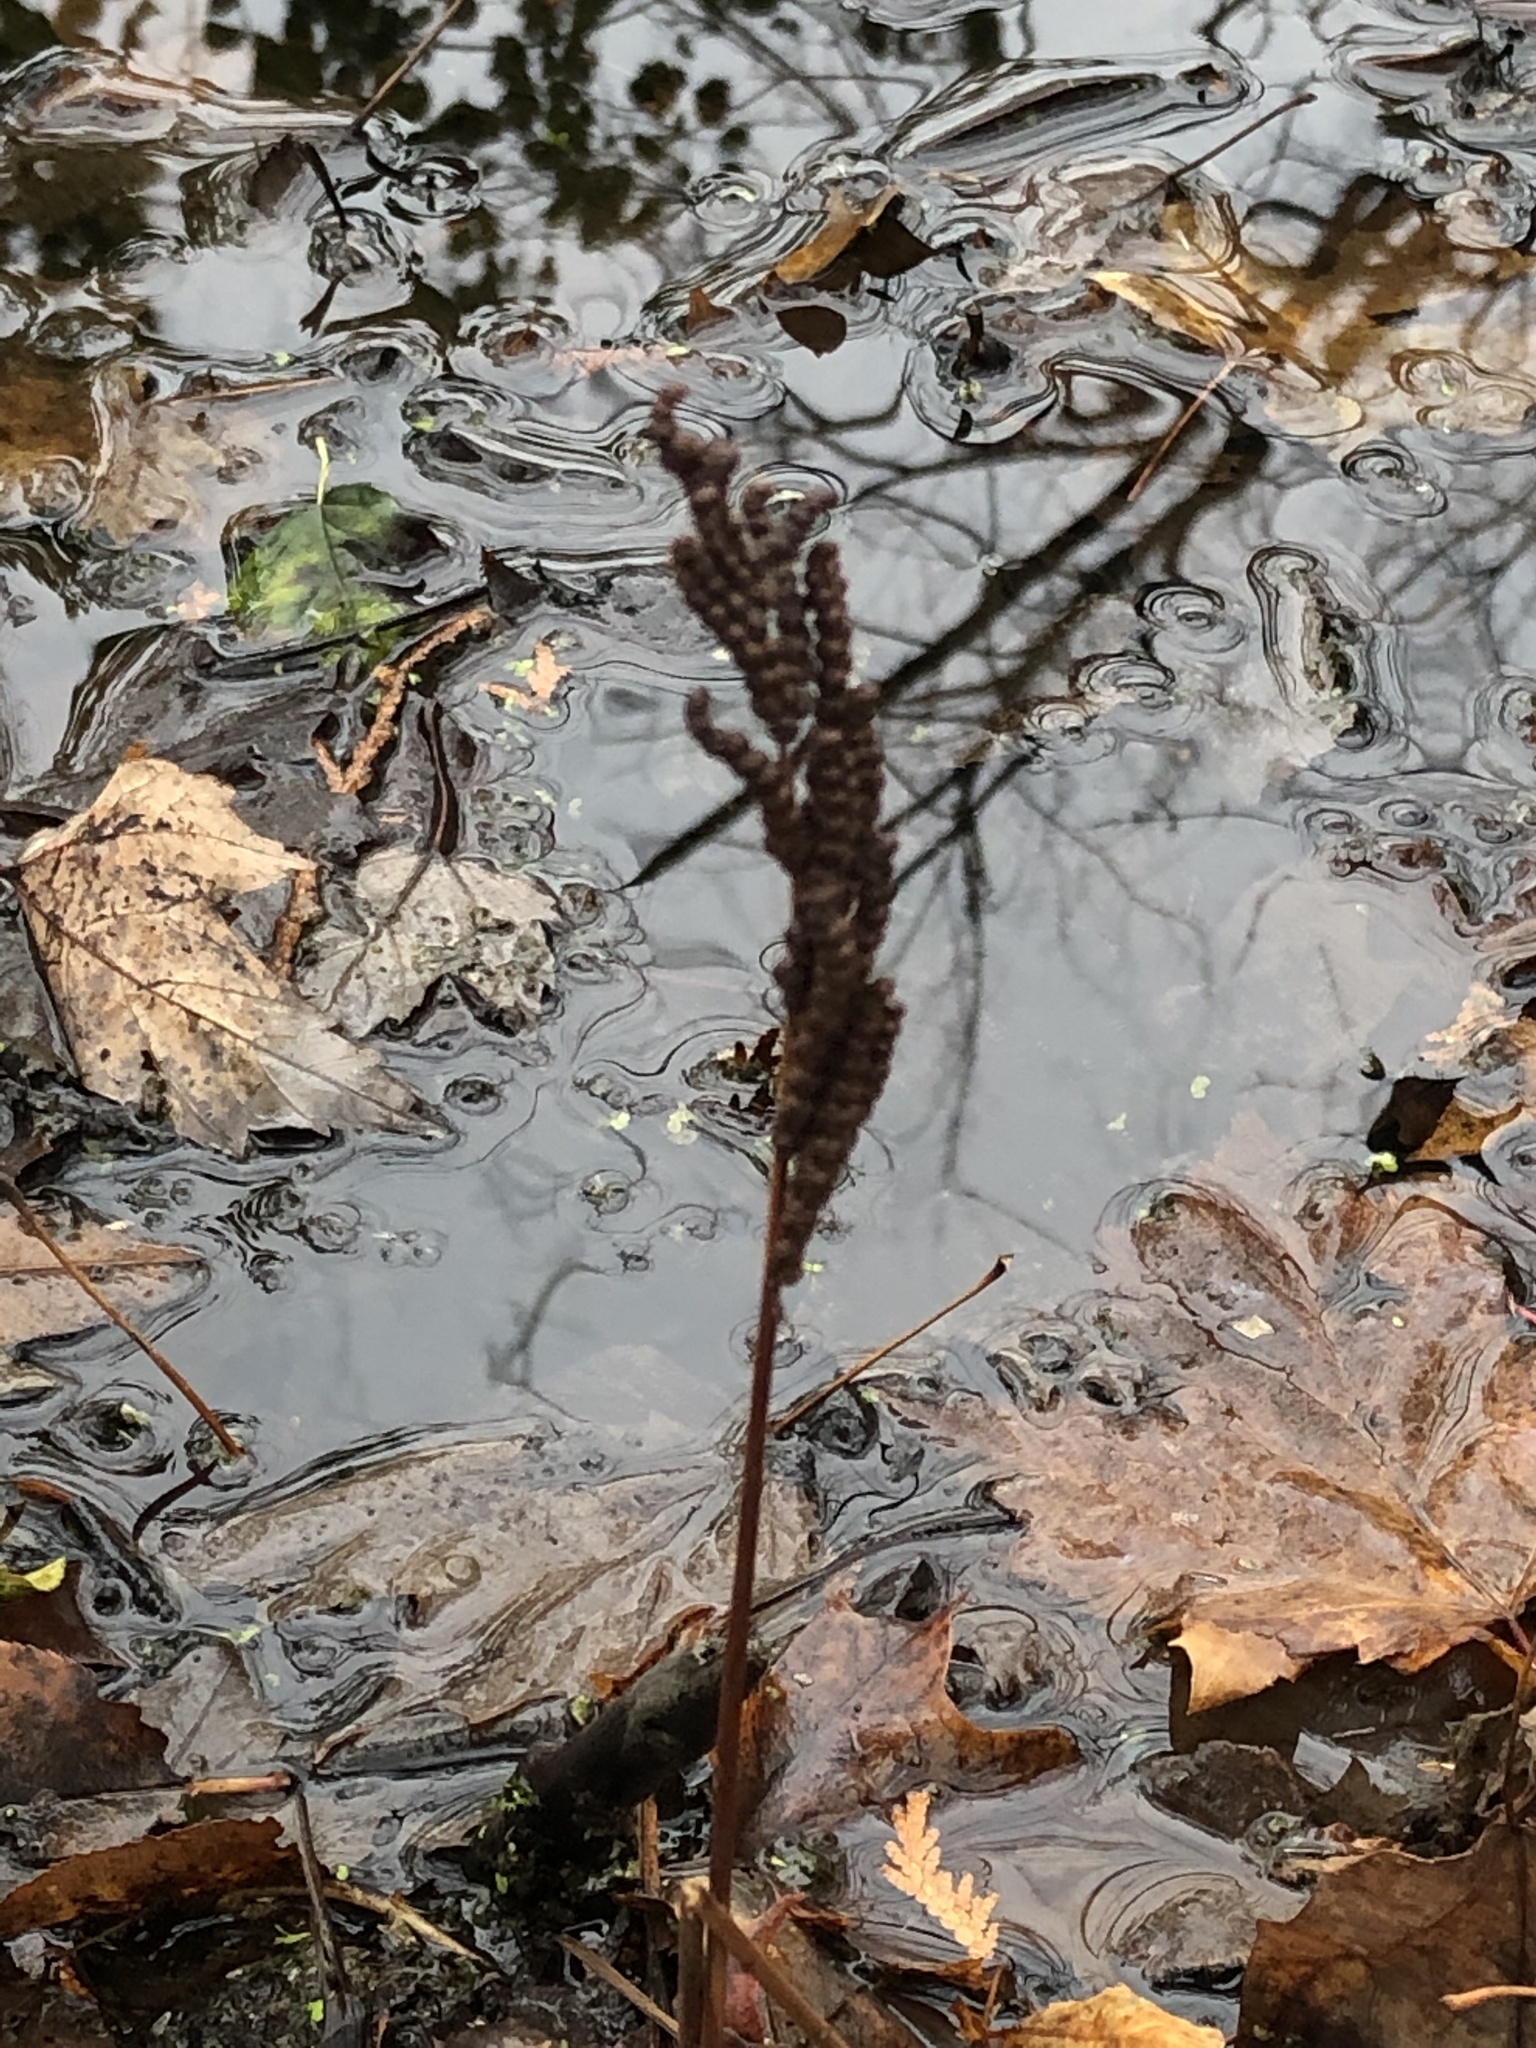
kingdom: Plantae
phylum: Tracheophyta
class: Polypodiopsida
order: Polypodiales
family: Onocleaceae
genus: Onoclea
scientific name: Onoclea sensibilis
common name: Sensitive fern
